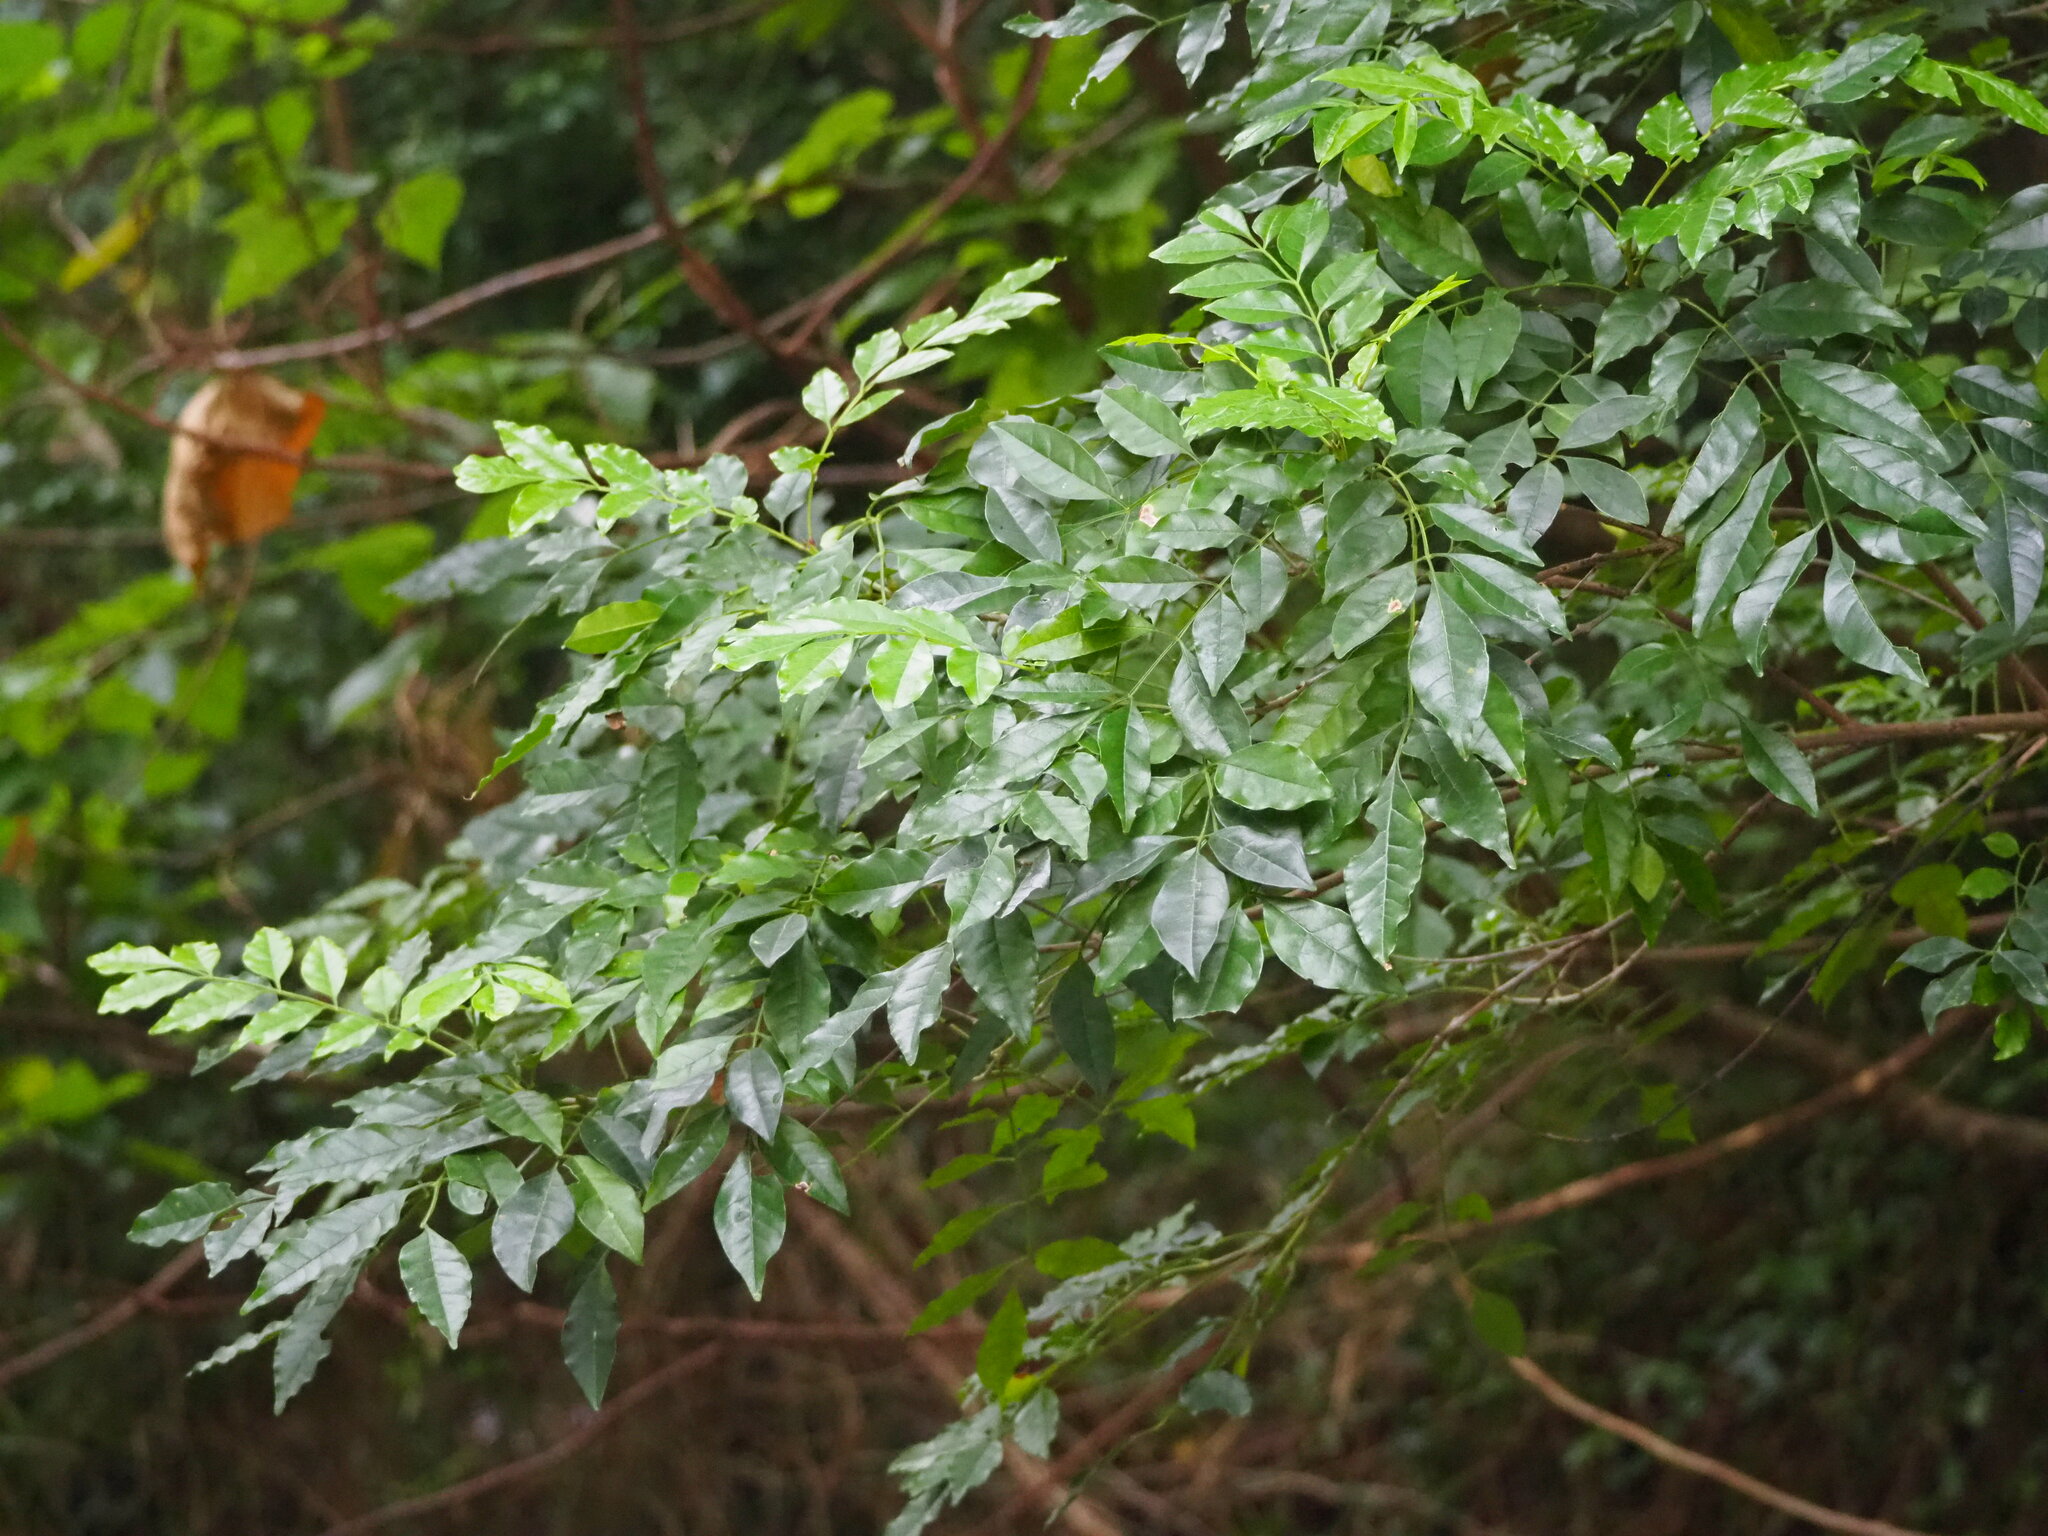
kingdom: Plantae
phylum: Tracheophyta
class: Magnoliopsida
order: Lamiales
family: Oleaceae
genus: Fraxinus
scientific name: Fraxinus griffithii
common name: Himalayan ash
